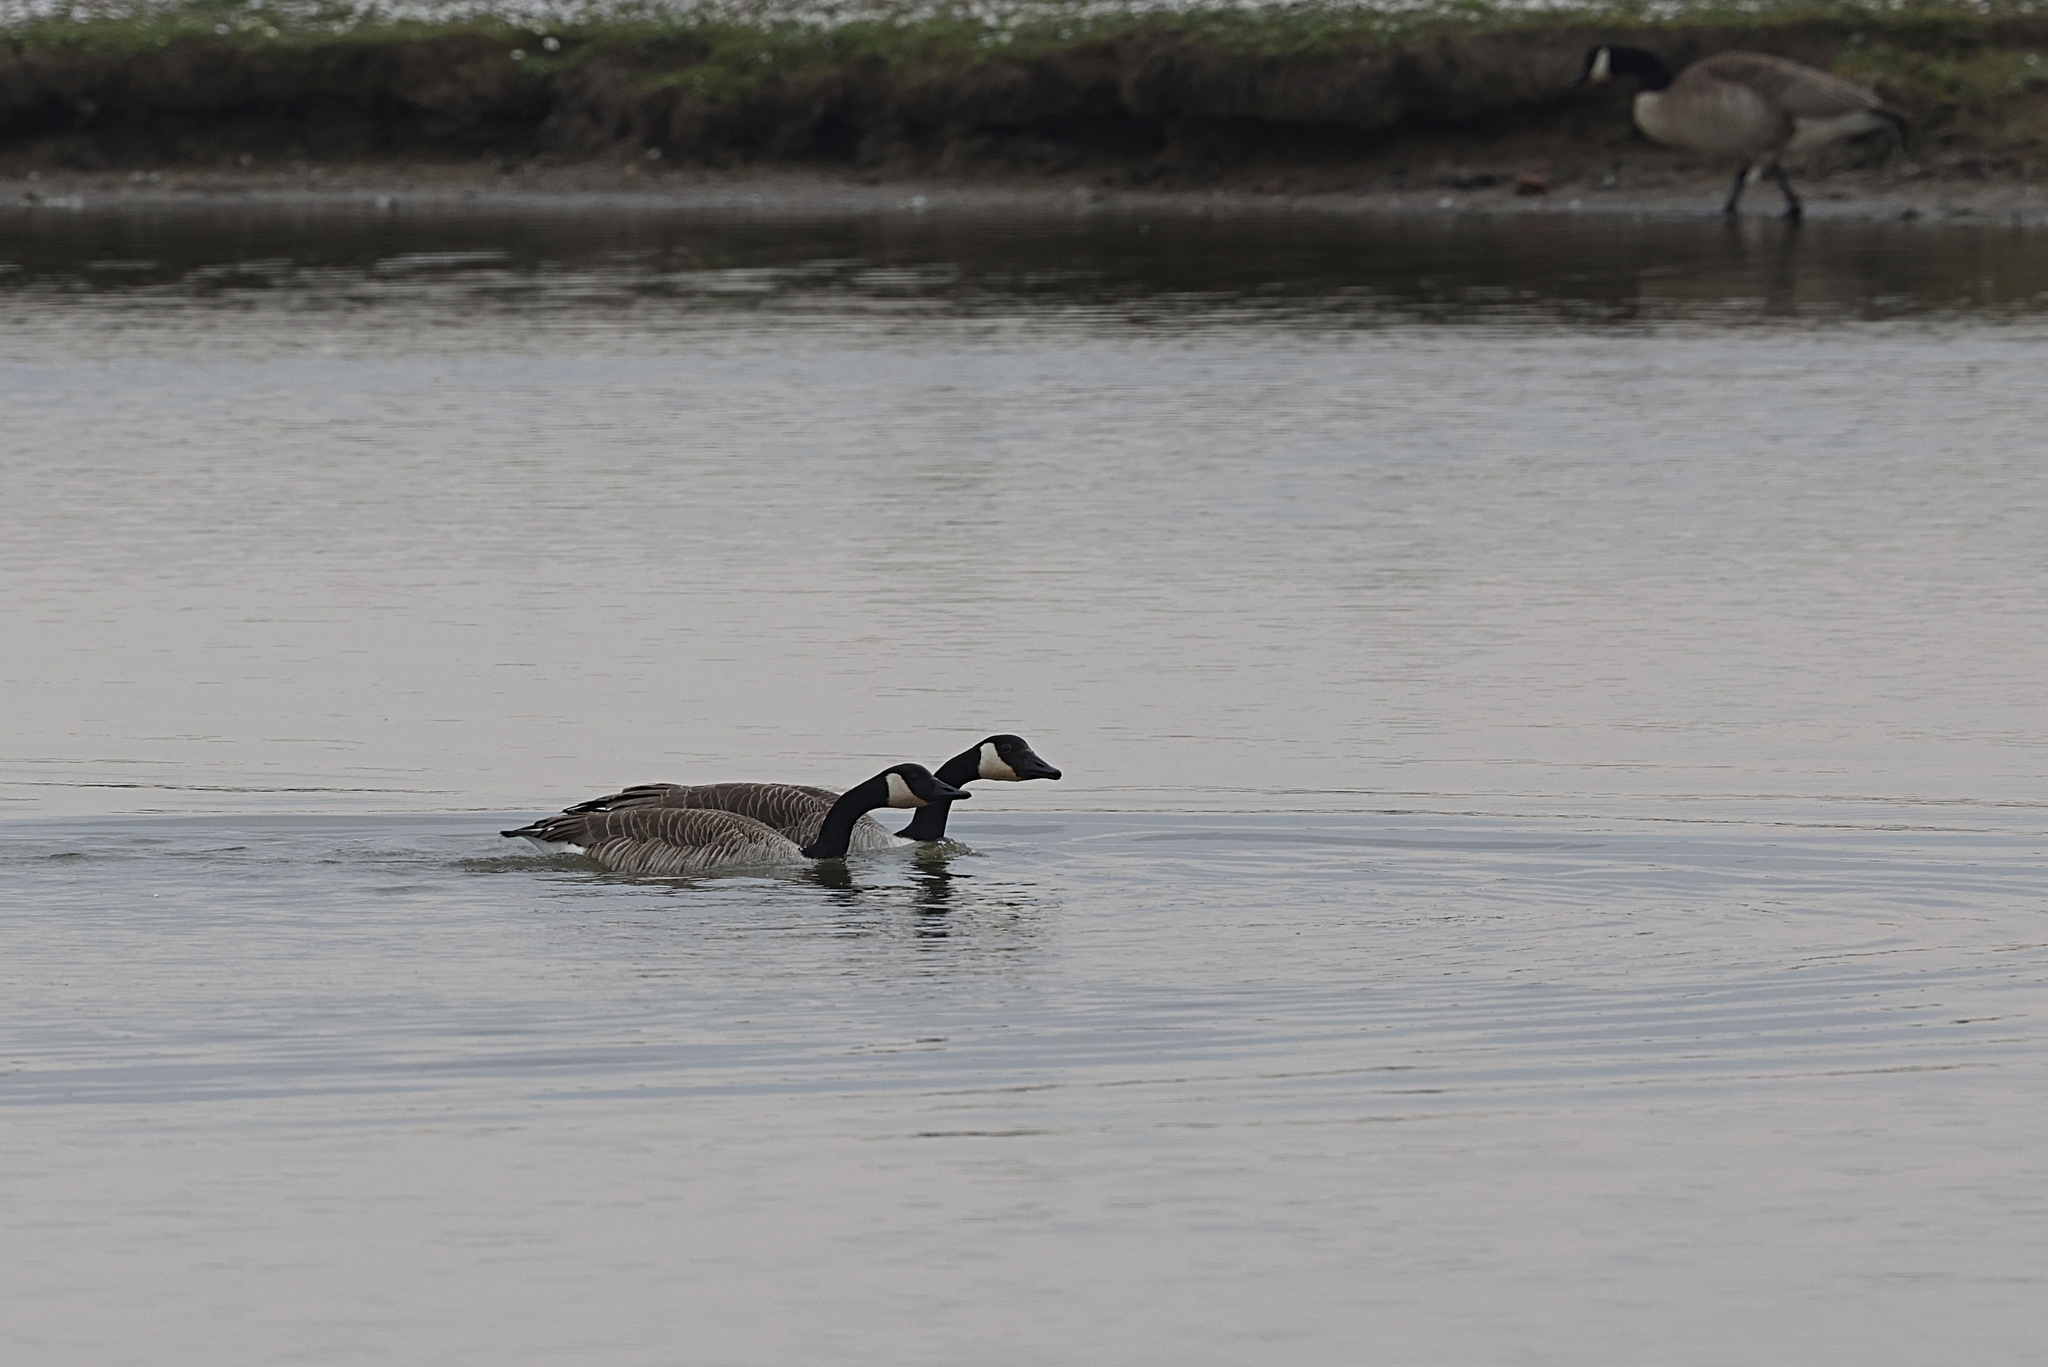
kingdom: Animalia
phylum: Chordata
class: Aves
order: Anseriformes
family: Anatidae
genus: Branta
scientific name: Branta canadensis
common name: Canada goose
